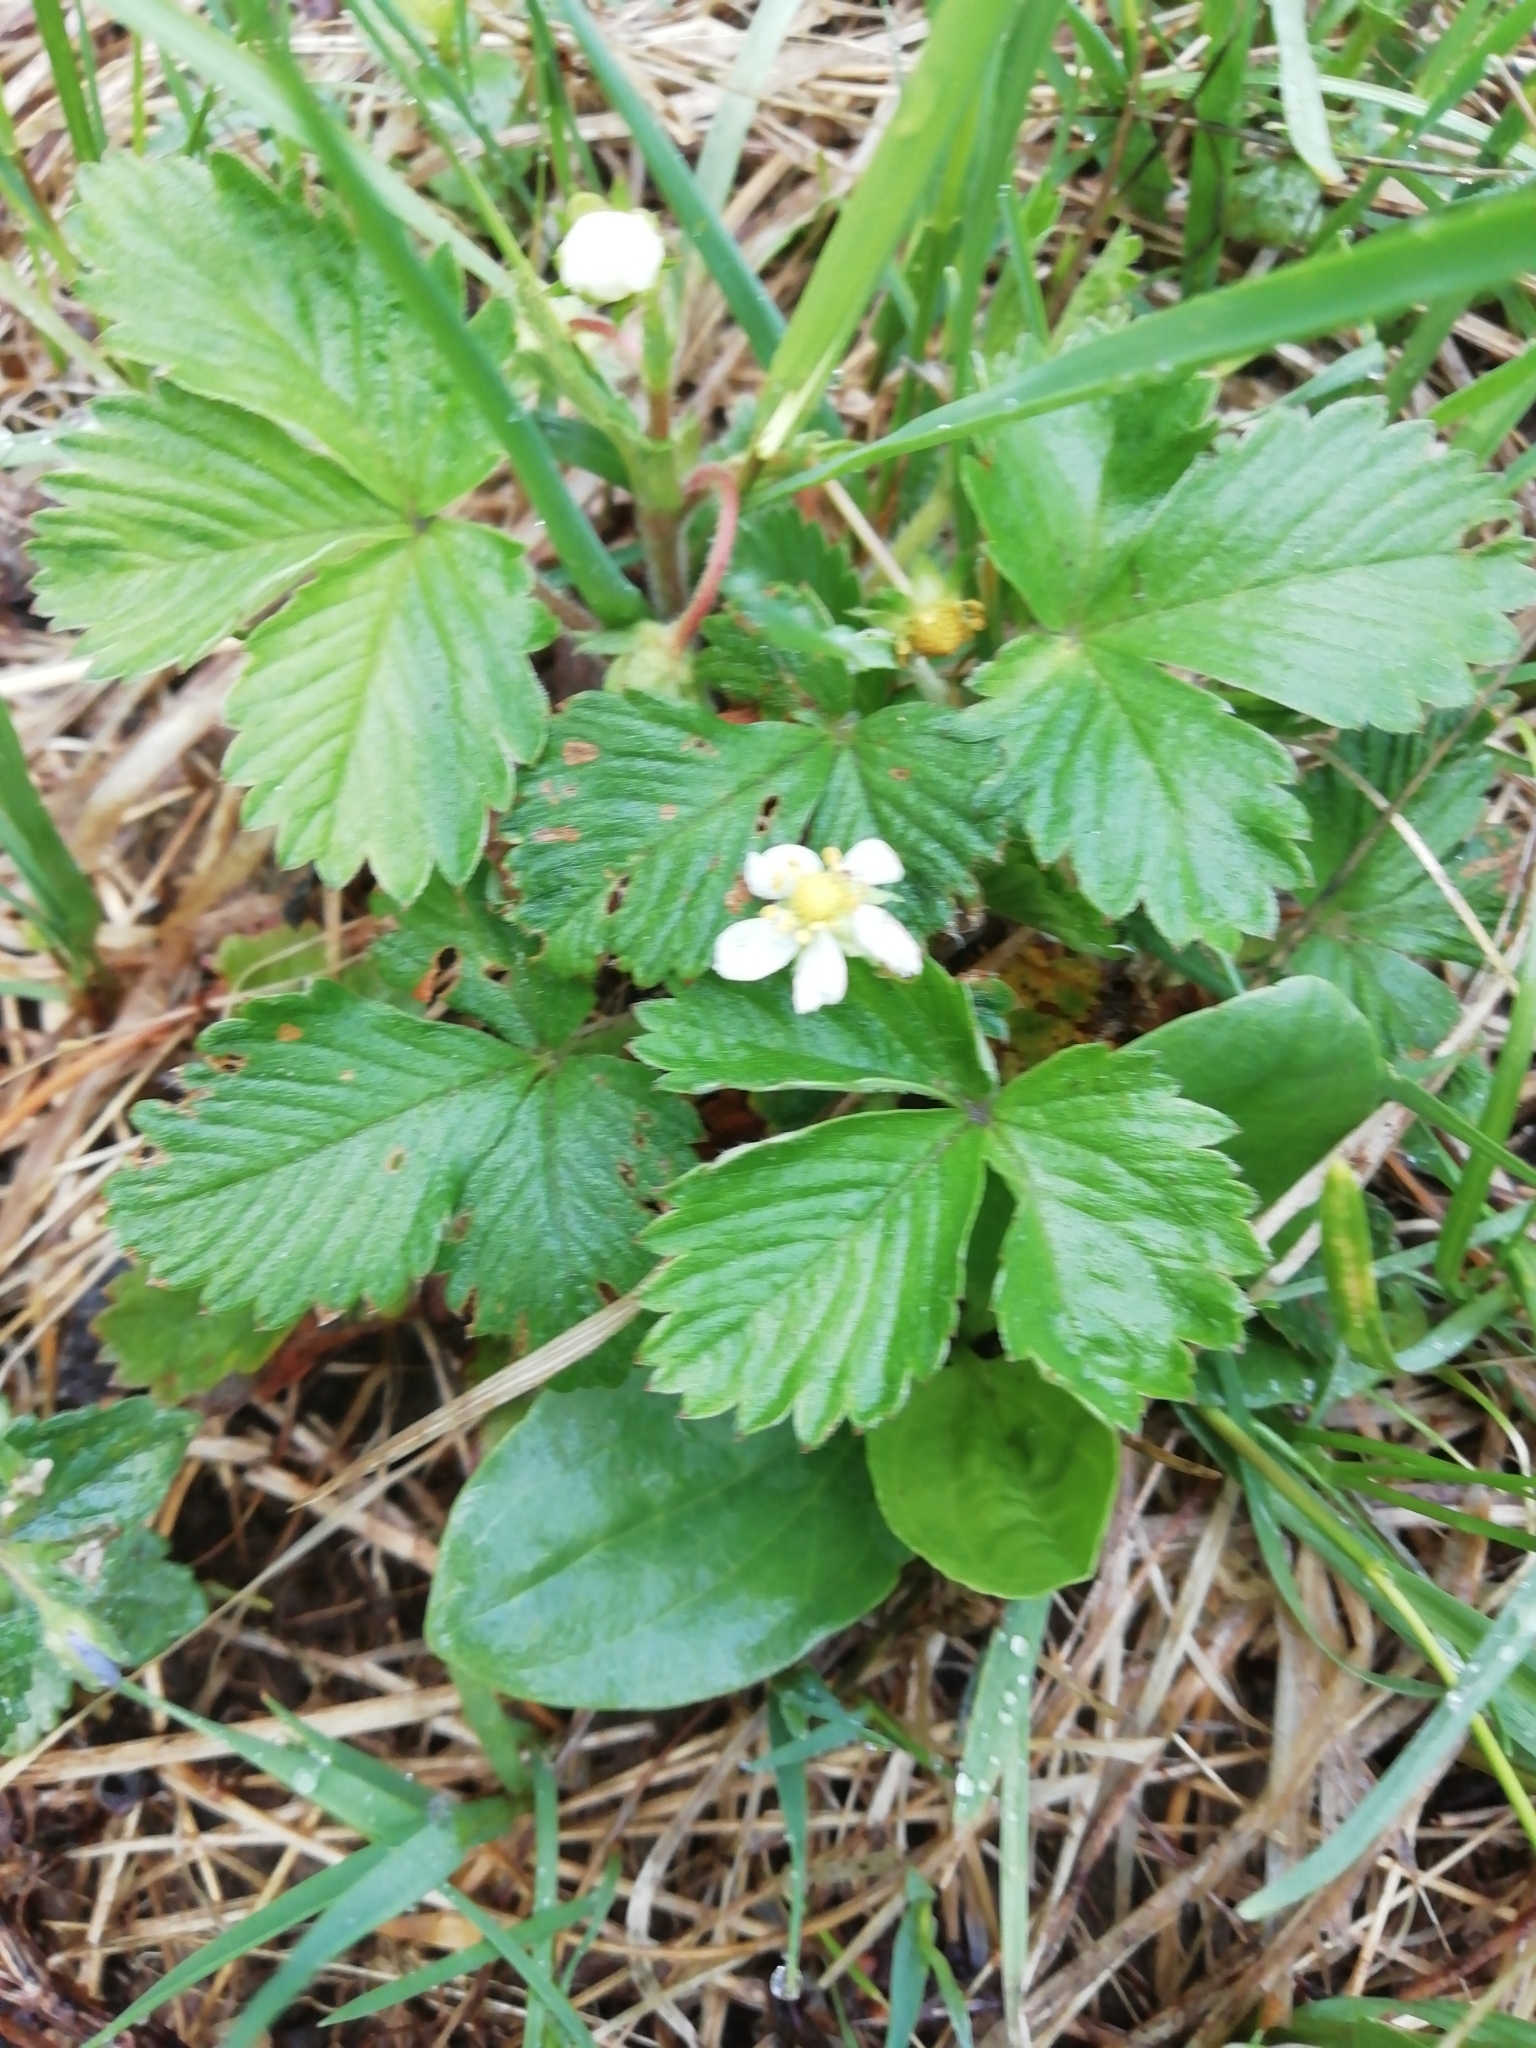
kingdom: Plantae
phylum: Tracheophyta
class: Magnoliopsida
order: Rosales
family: Rosaceae
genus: Fragaria
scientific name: Fragaria vesca
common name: Wild strawberry
